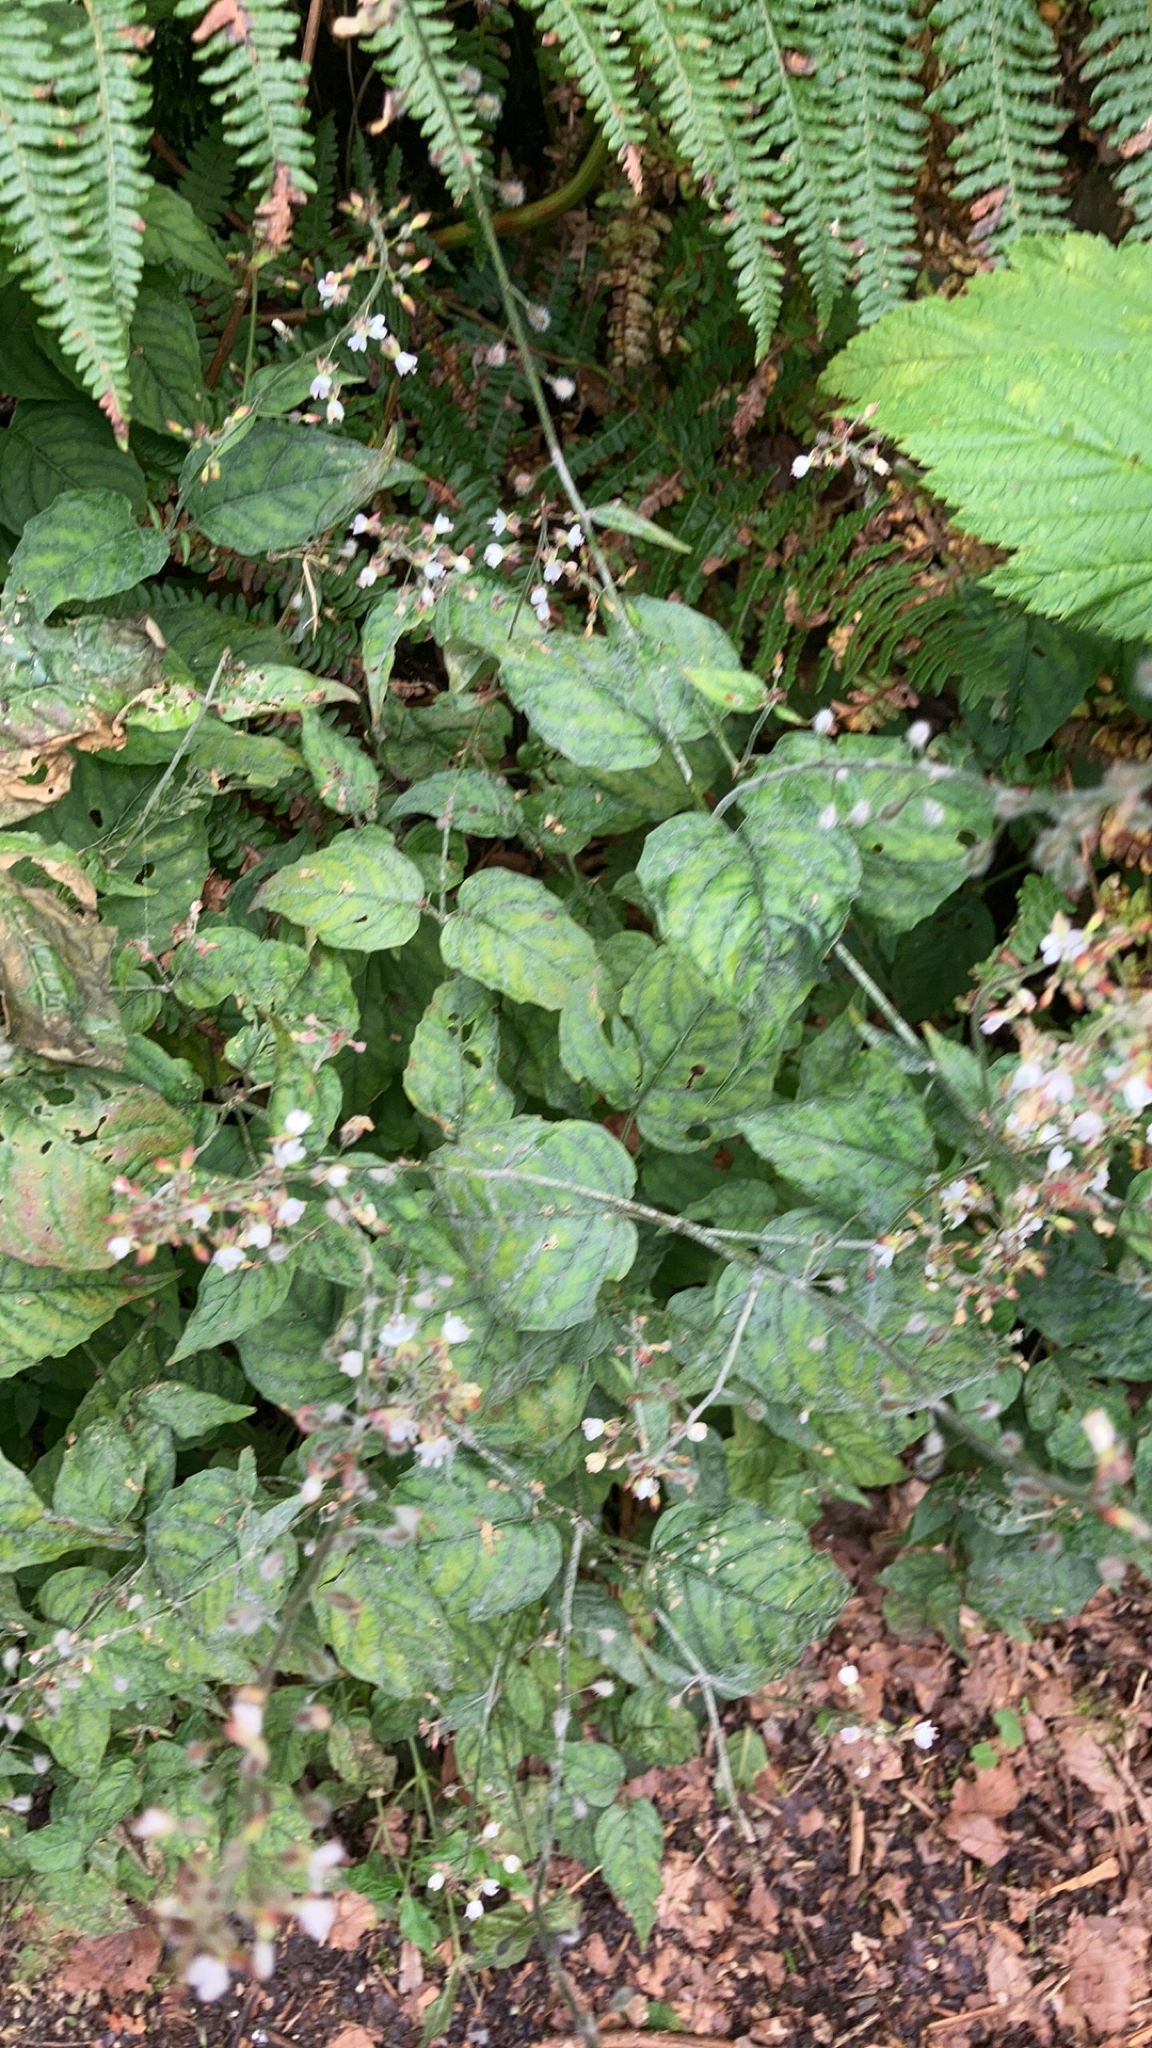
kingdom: Plantae
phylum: Tracheophyta
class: Magnoliopsida
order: Myrtales
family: Onagraceae
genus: Circaea
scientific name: Circaea lutetiana
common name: Enchanter's-nightshade
